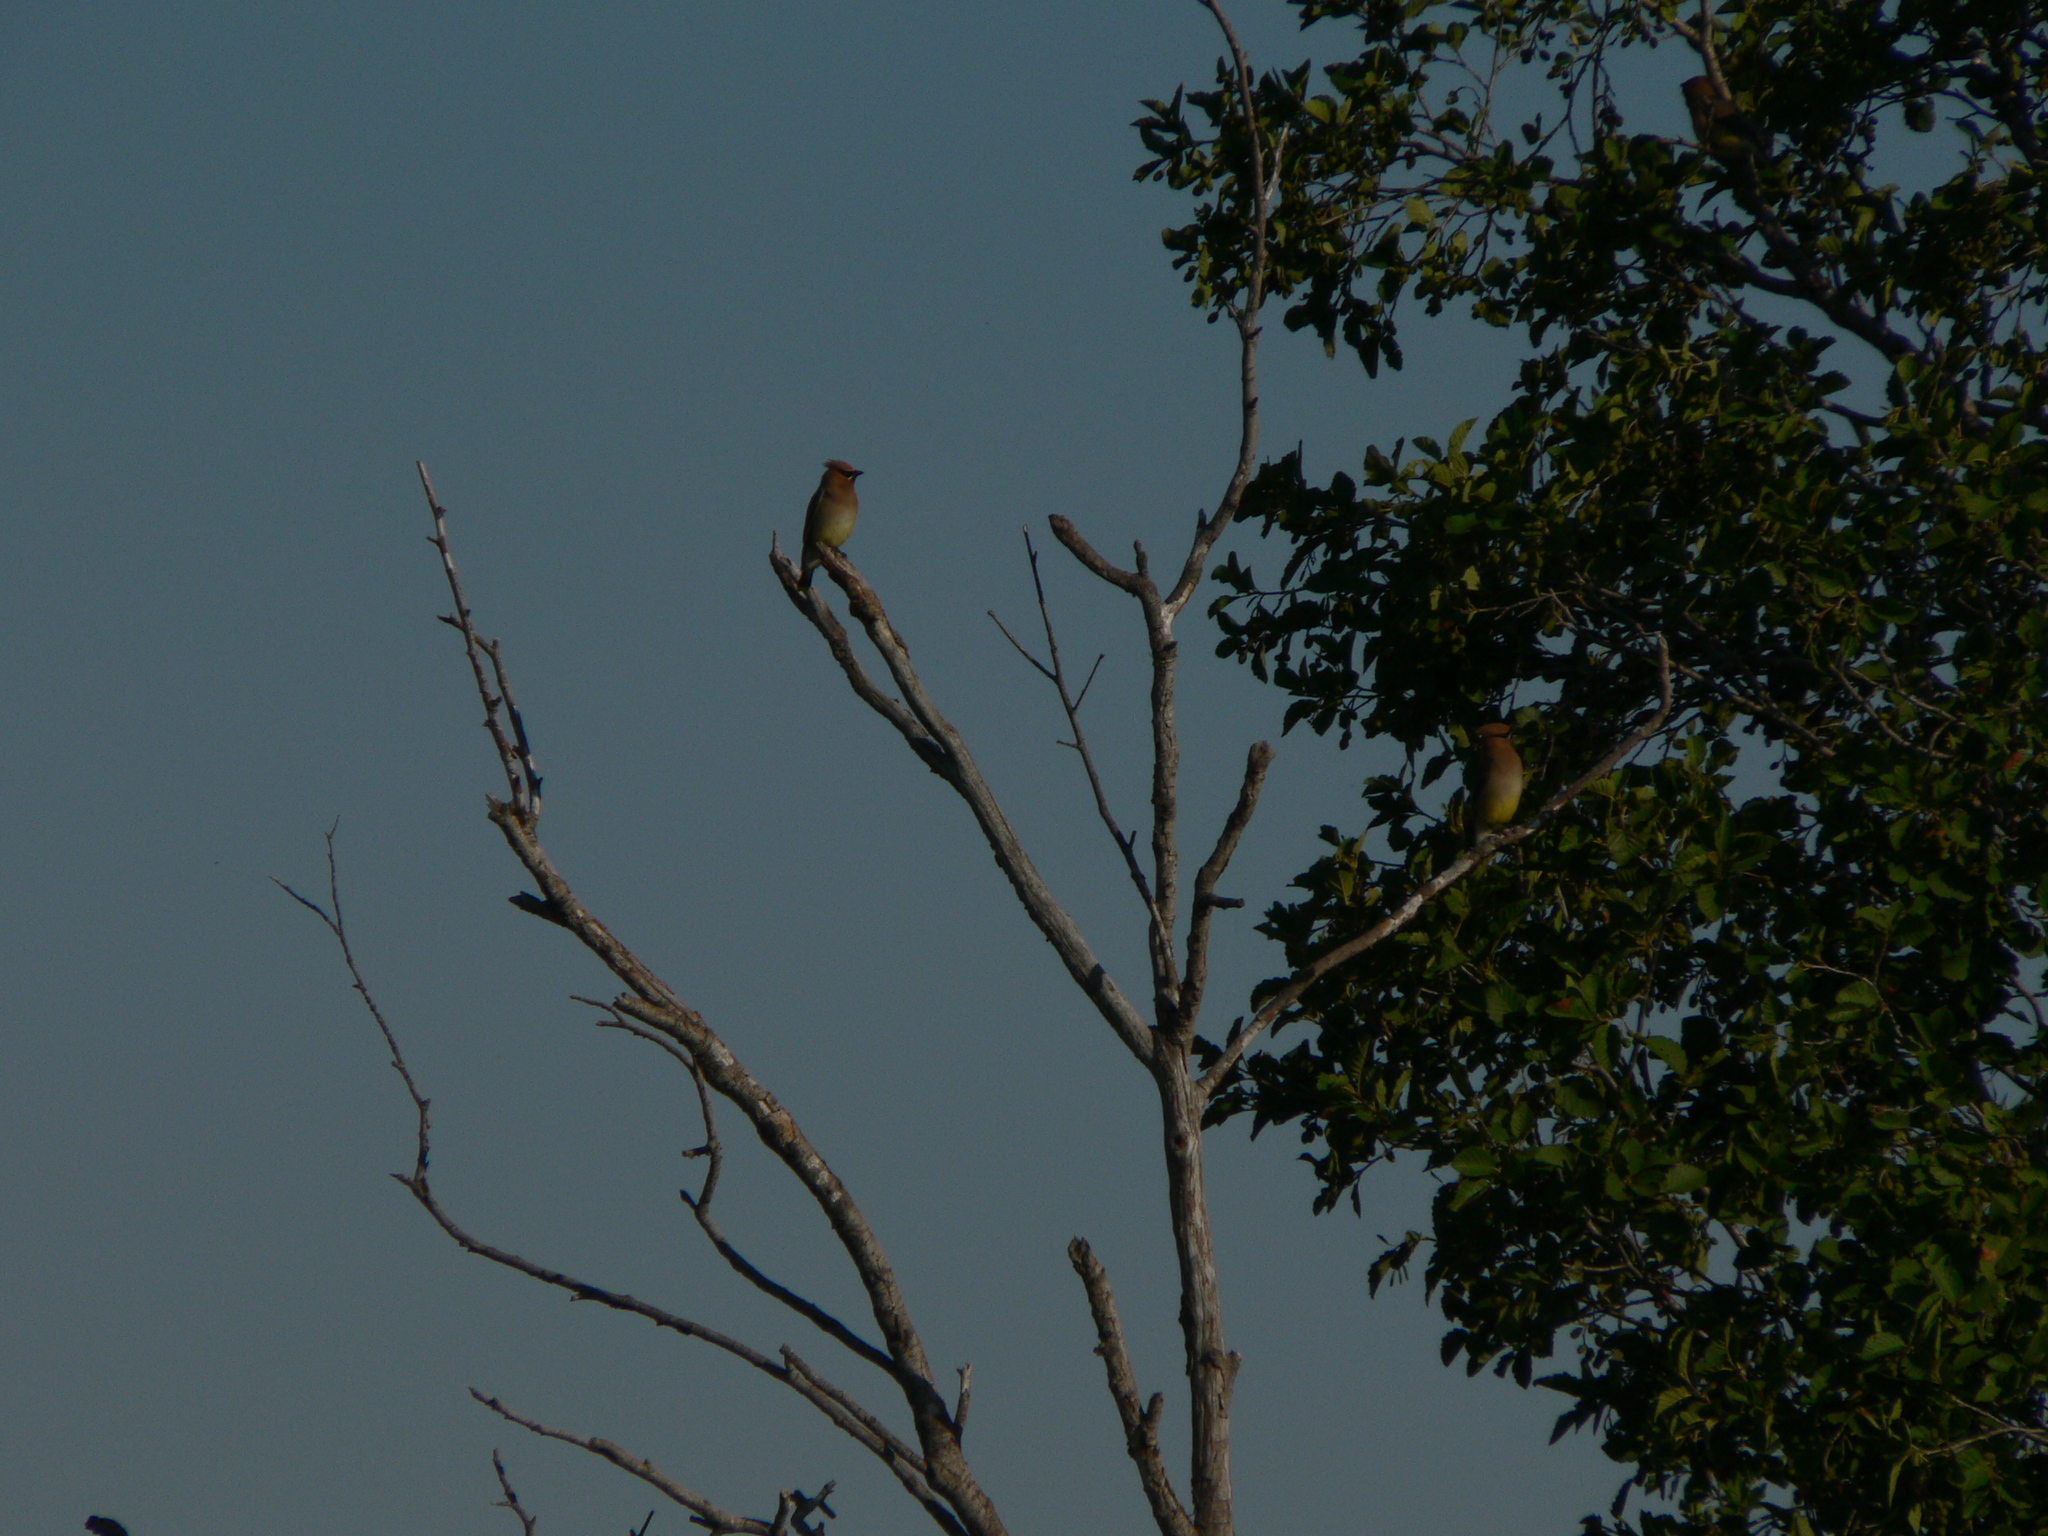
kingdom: Animalia
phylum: Chordata
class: Aves
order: Passeriformes
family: Bombycillidae
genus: Bombycilla
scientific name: Bombycilla cedrorum
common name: Cedar waxwing
